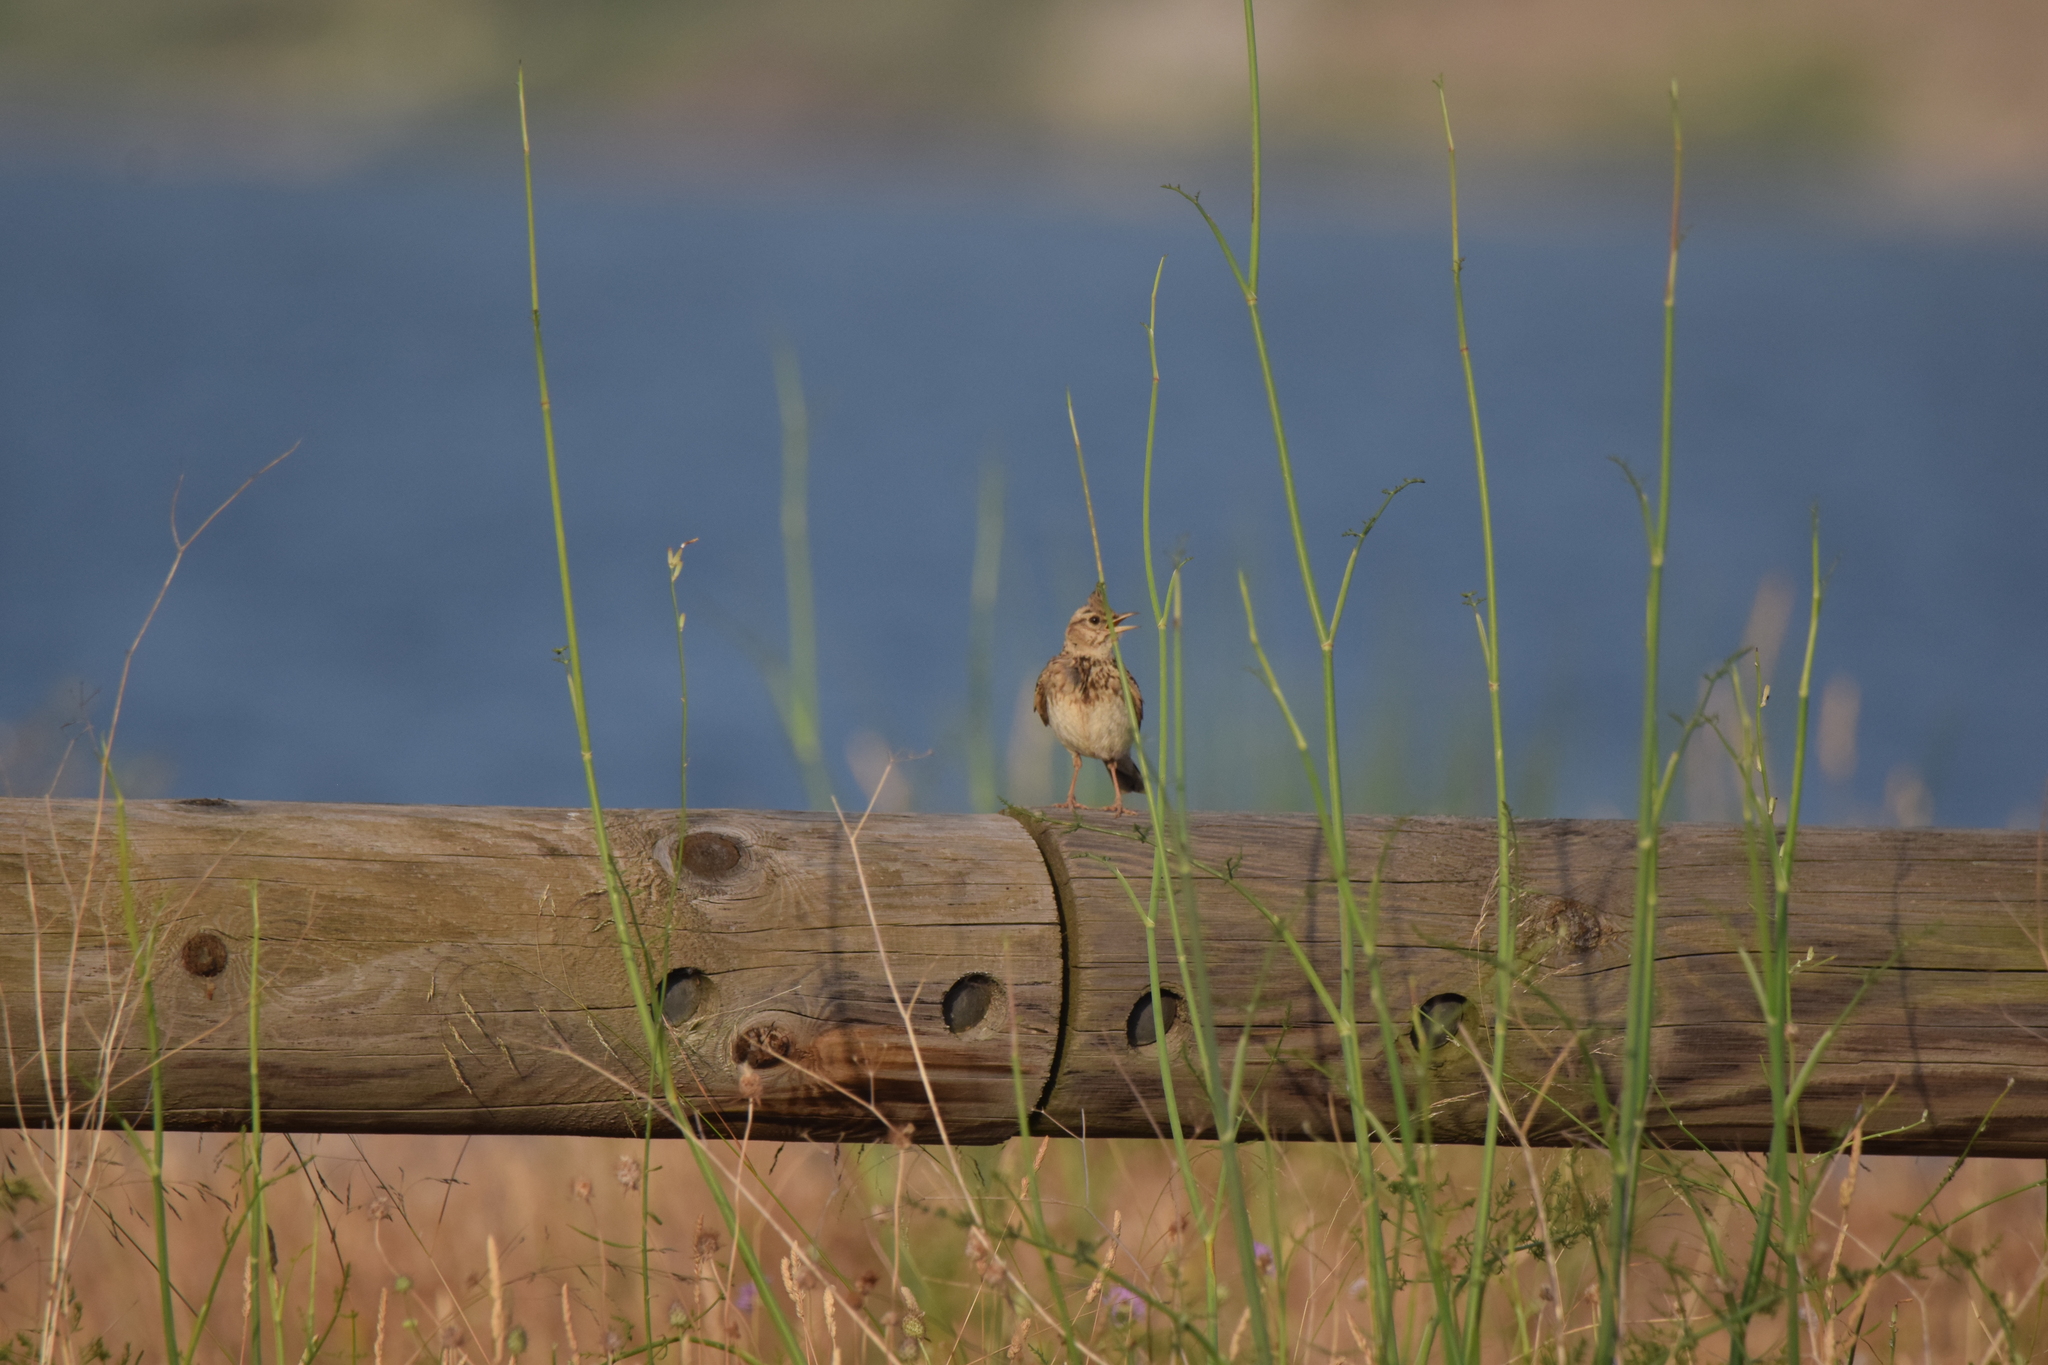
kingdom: Animalia
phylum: Chordata
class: Aves
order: Passeriformes
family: Alaudidae
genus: Galerida
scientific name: Galerida cristata
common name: Crested lark
